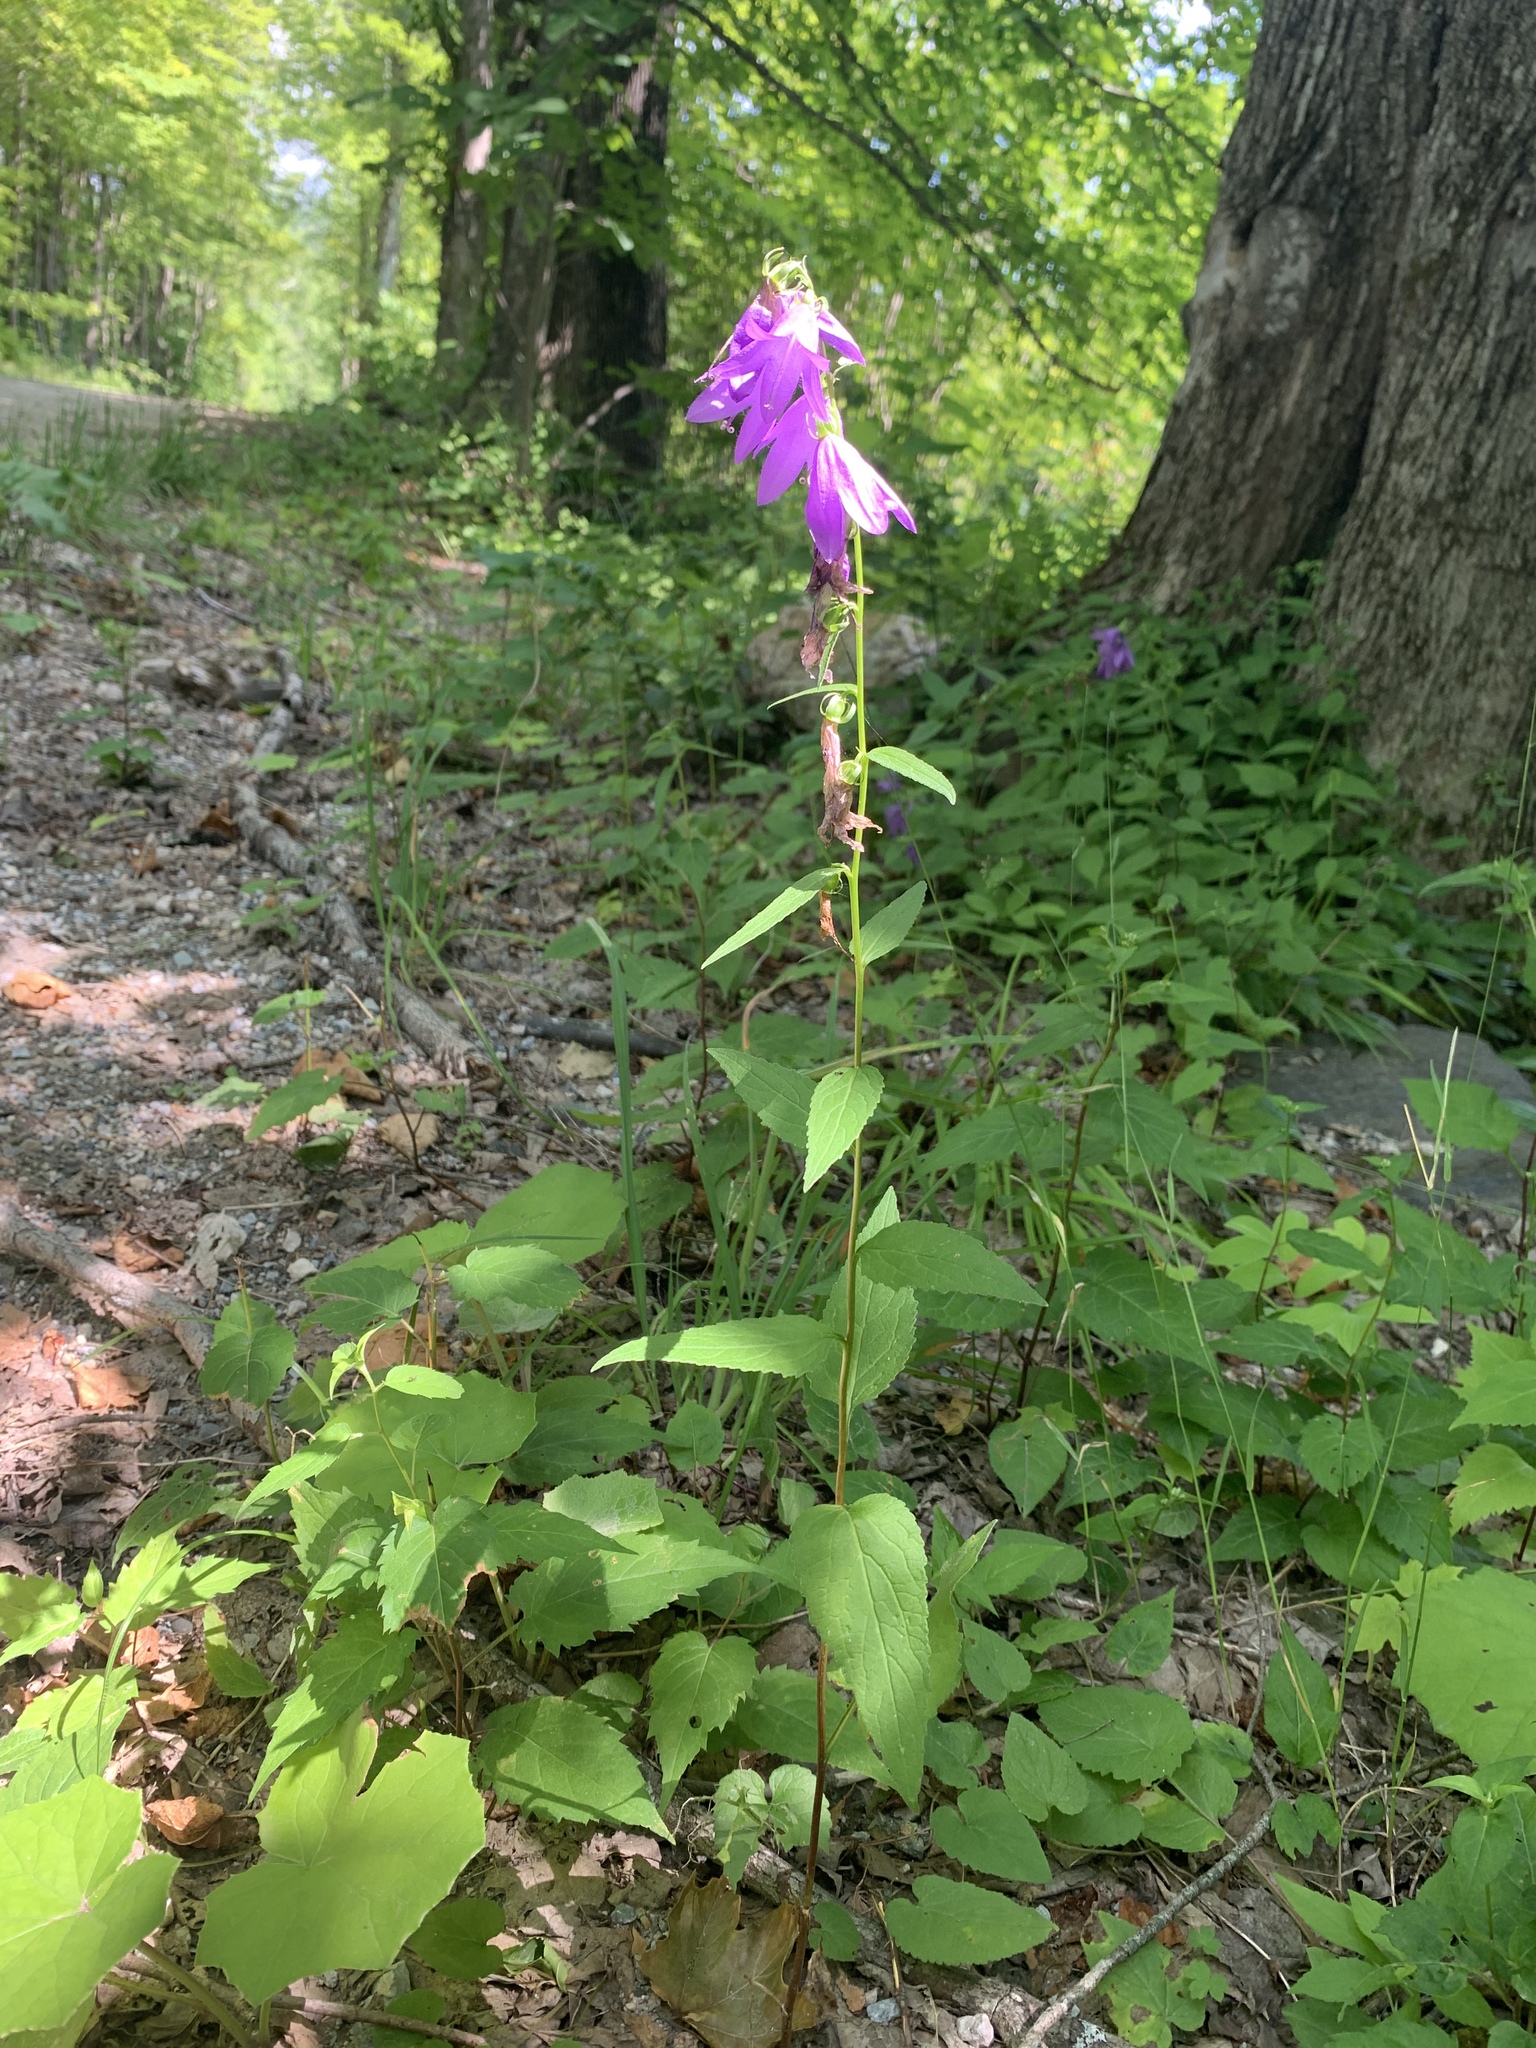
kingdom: Plantae
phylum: Tracheophyta
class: Magnoliopsida
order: Asterales
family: Campanulaceae
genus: Campanula
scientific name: Campanula rapunculoides
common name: Creeping bellflower
